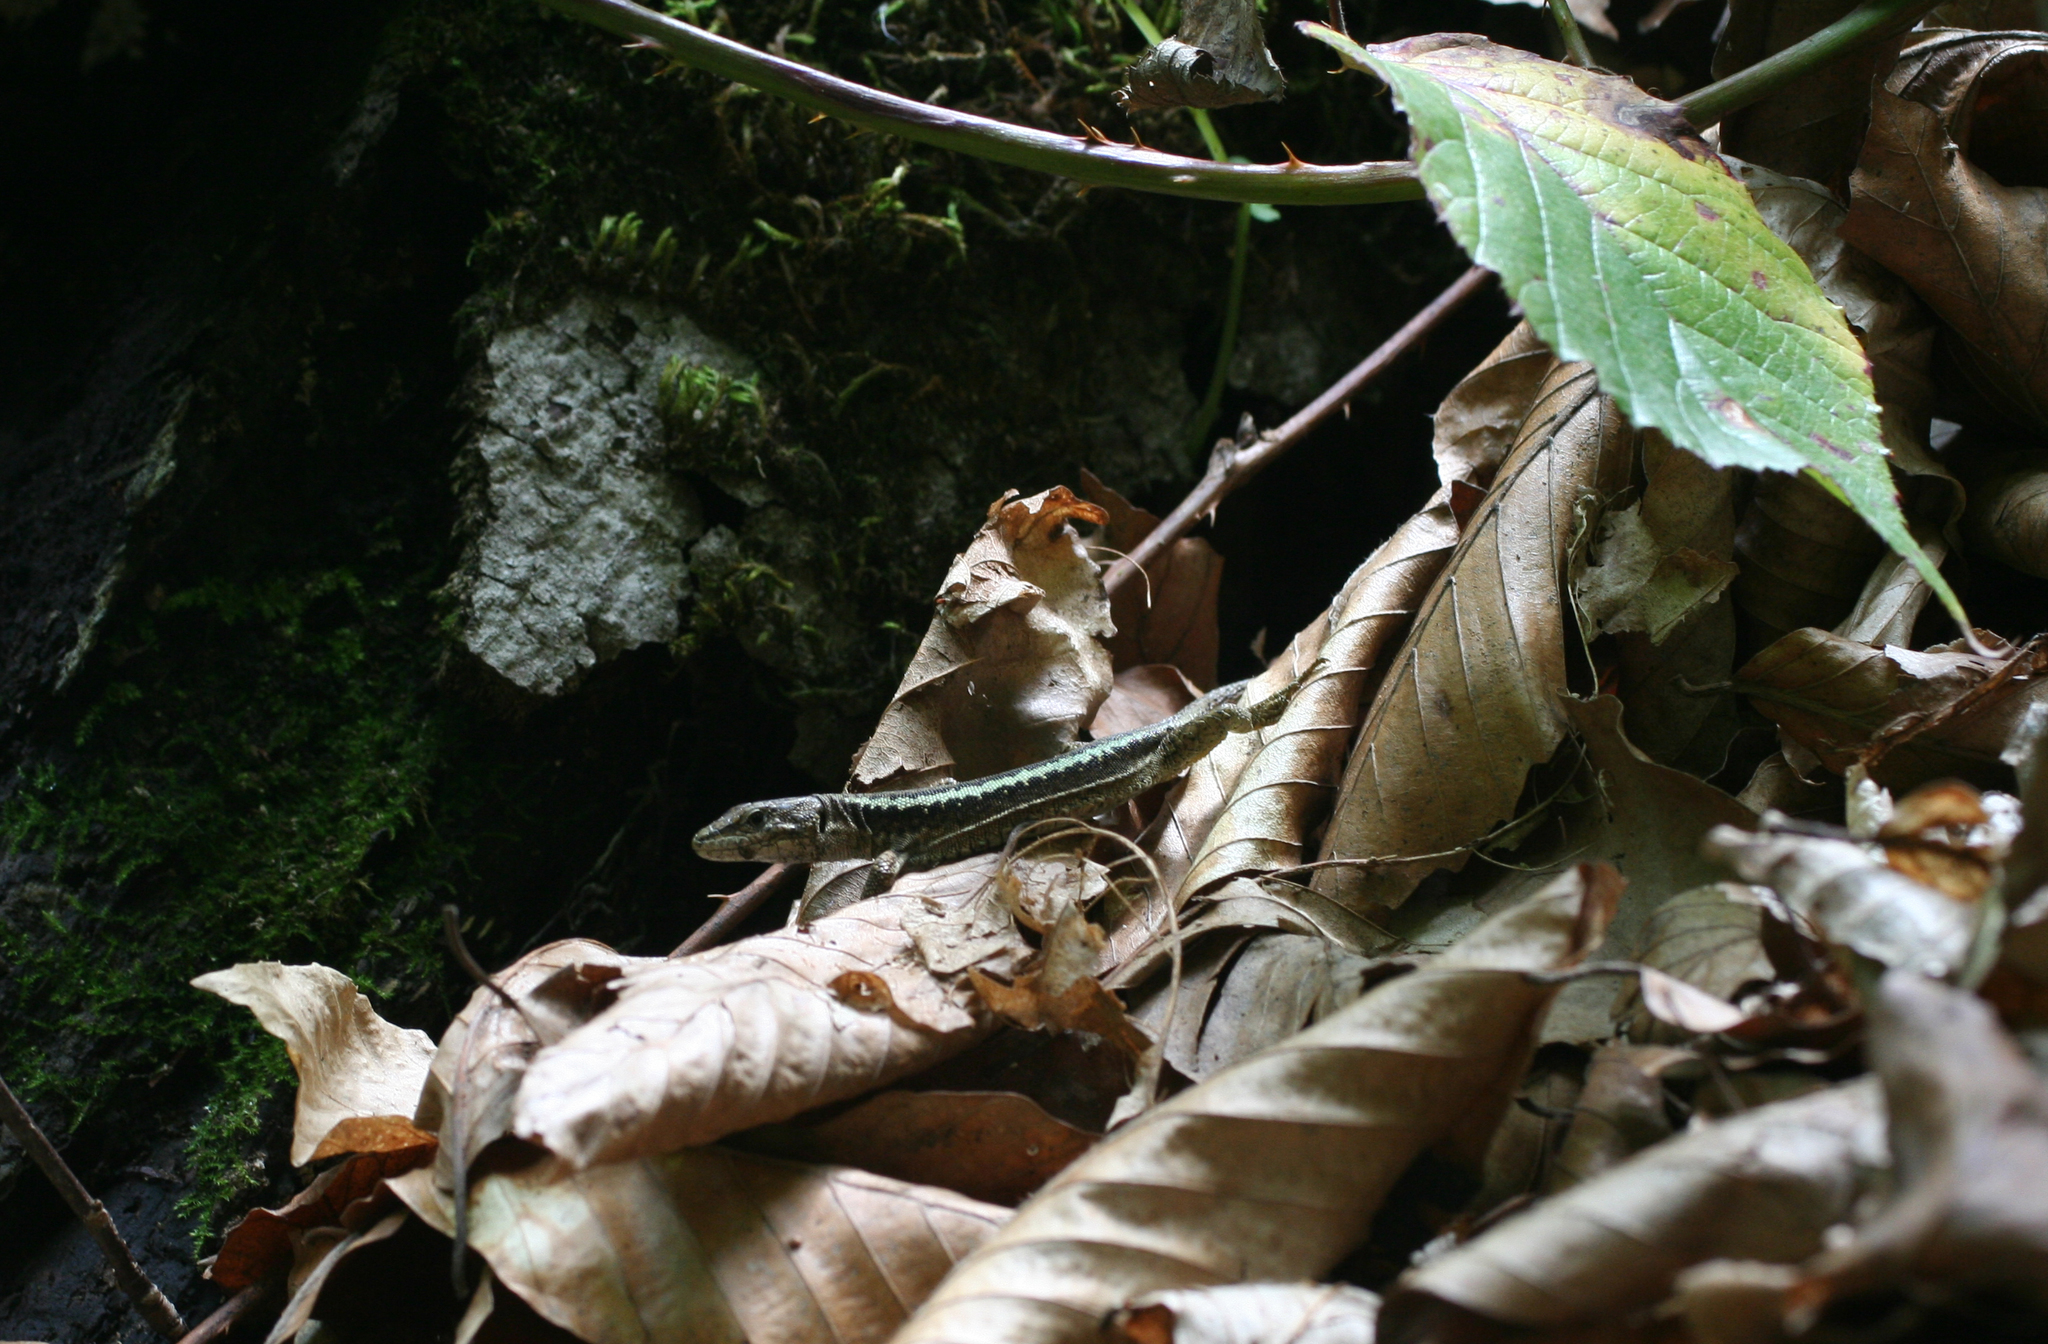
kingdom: Animalia
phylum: Chordata
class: Squamata
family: Lacertidae
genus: Darevskia
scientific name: Darevskia daghestanica
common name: Dagestan lizard
